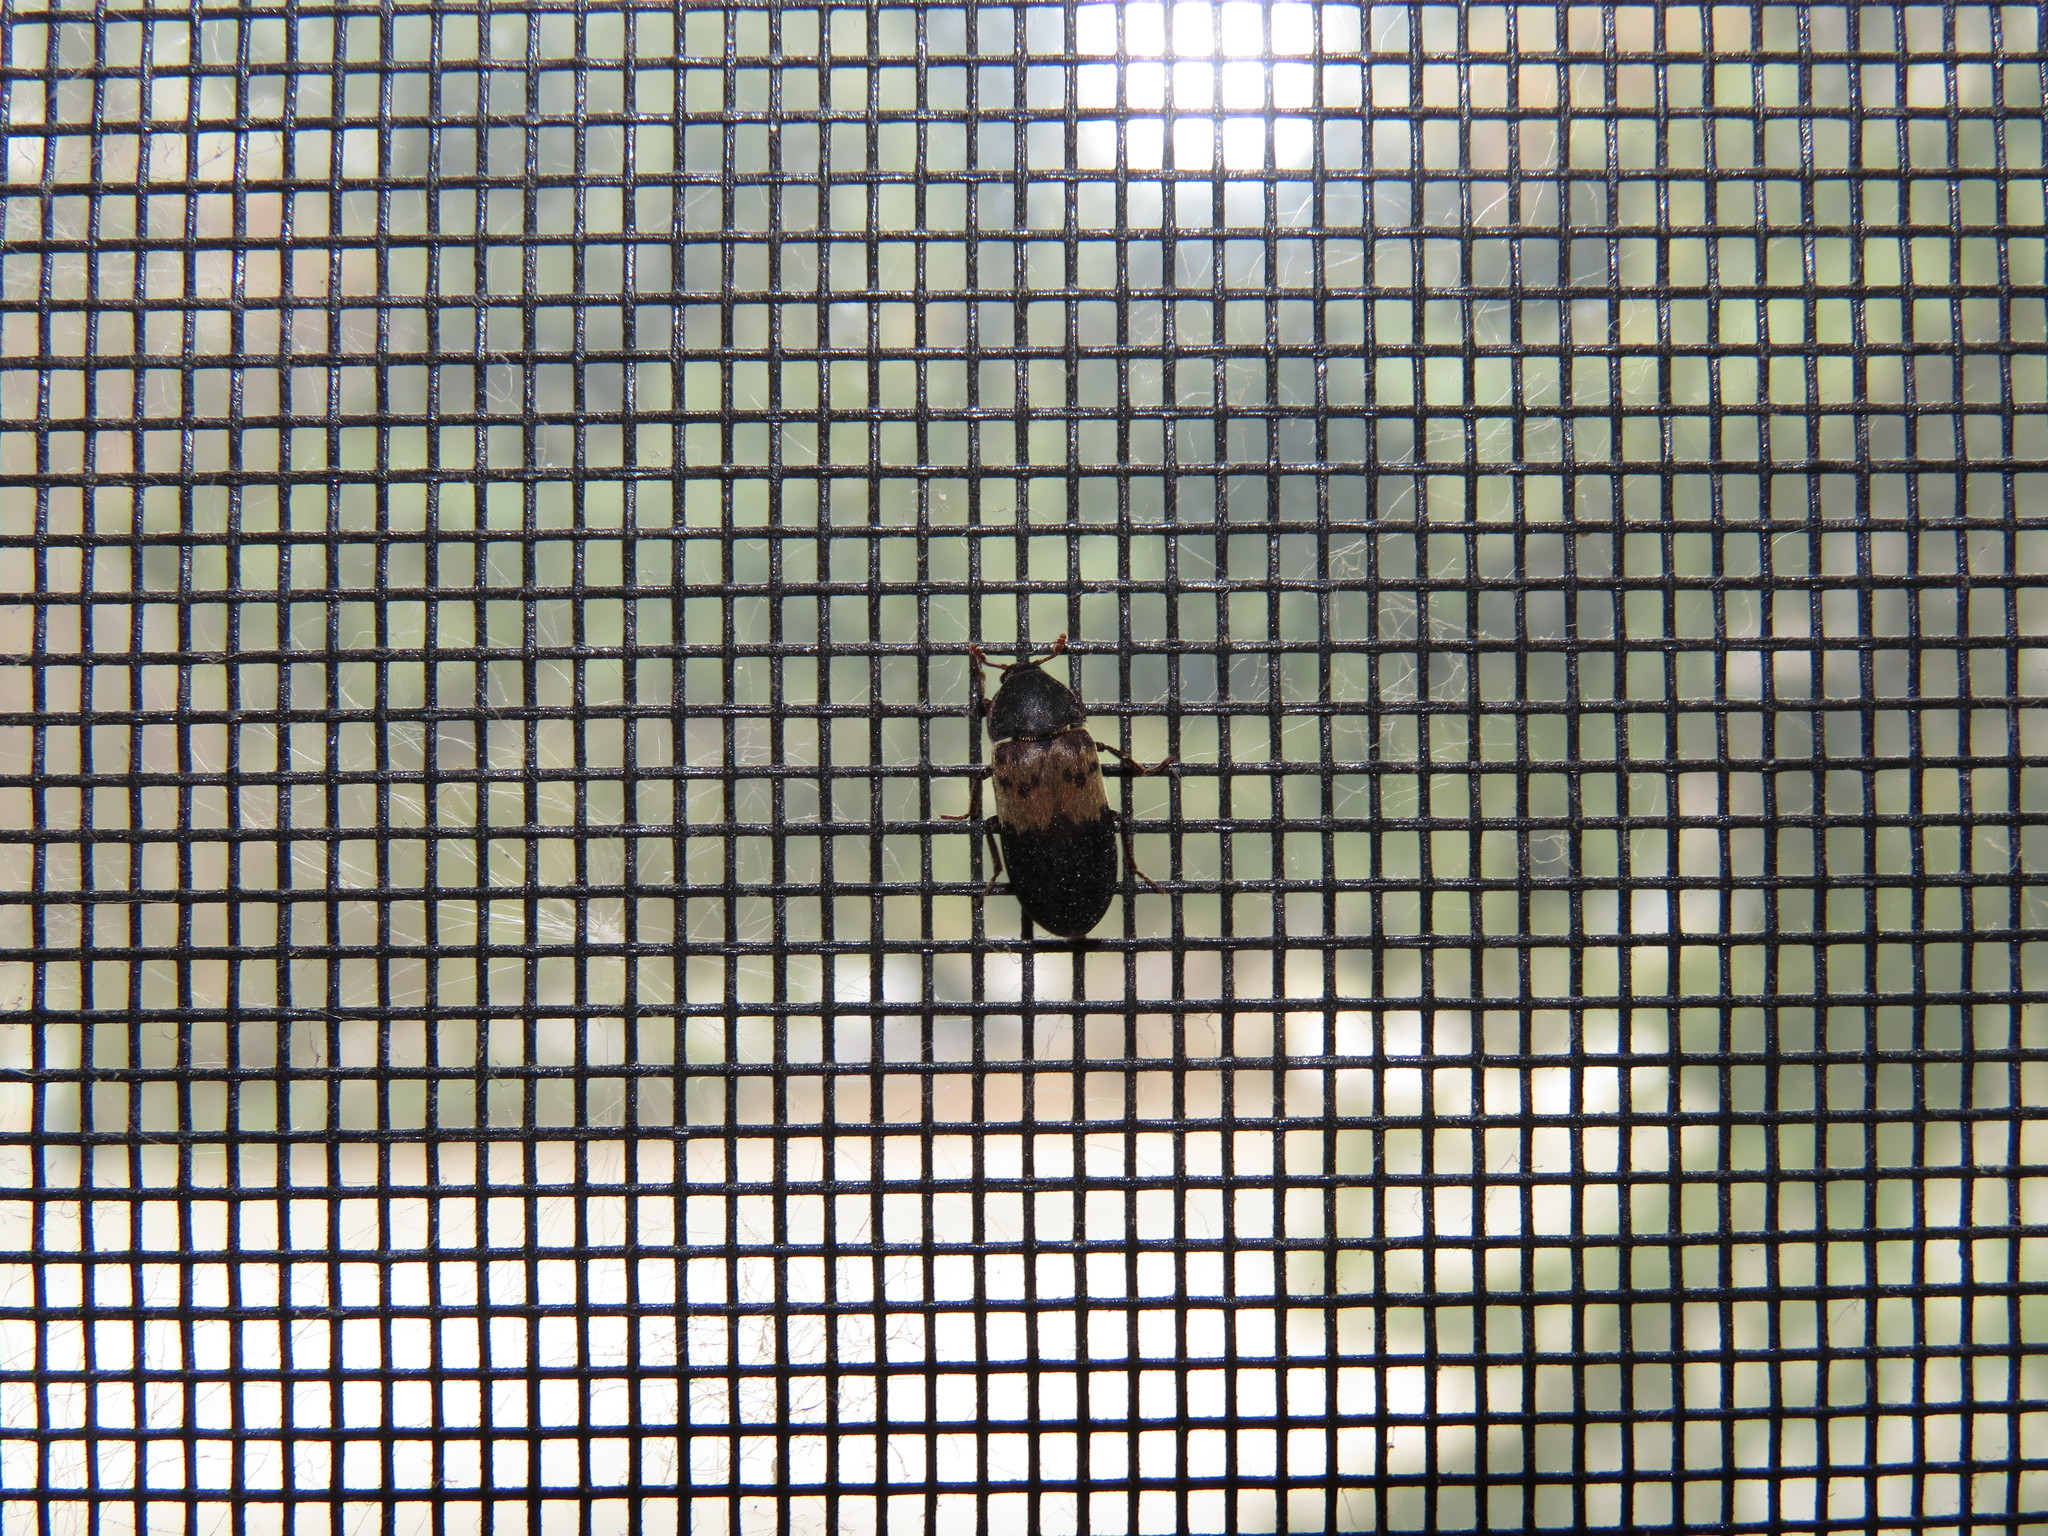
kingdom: Animalia
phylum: Arthropoda
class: Insecta
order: Coleoptera
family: Dermestidae
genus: Dermestes
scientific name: Dermestes lardarius
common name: Larder beetle
